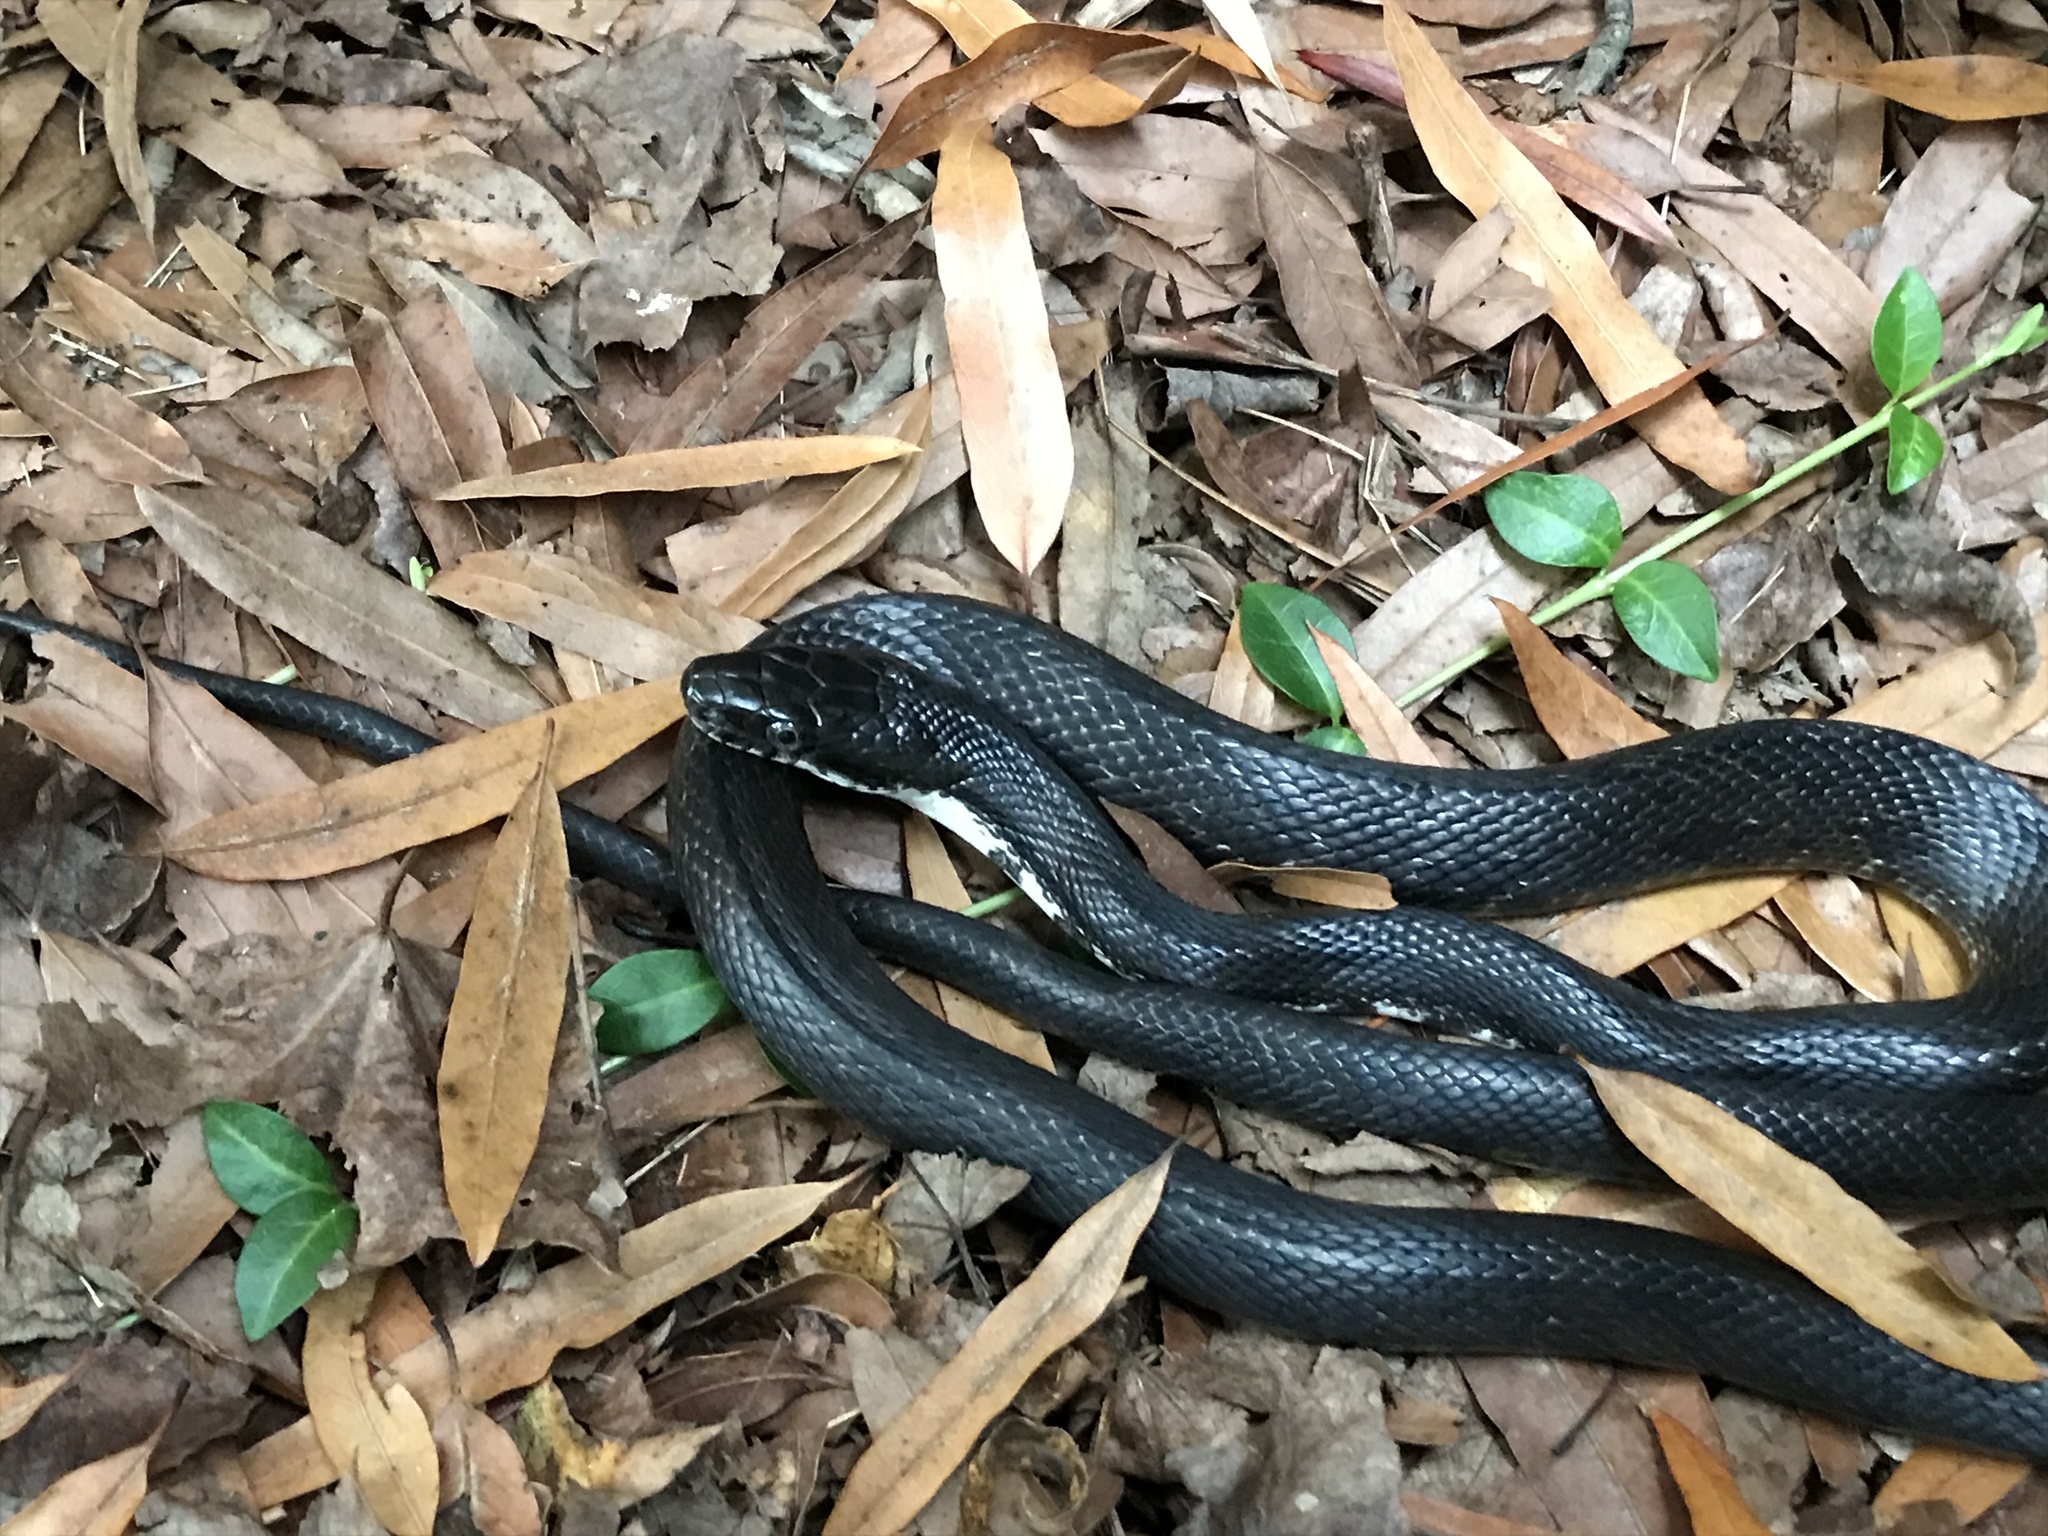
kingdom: Animalia
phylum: Chordata
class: Squamata
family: Colubridae
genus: Pantherophis
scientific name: Pantherophis alleghaniensis
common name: Eastern rat snake
